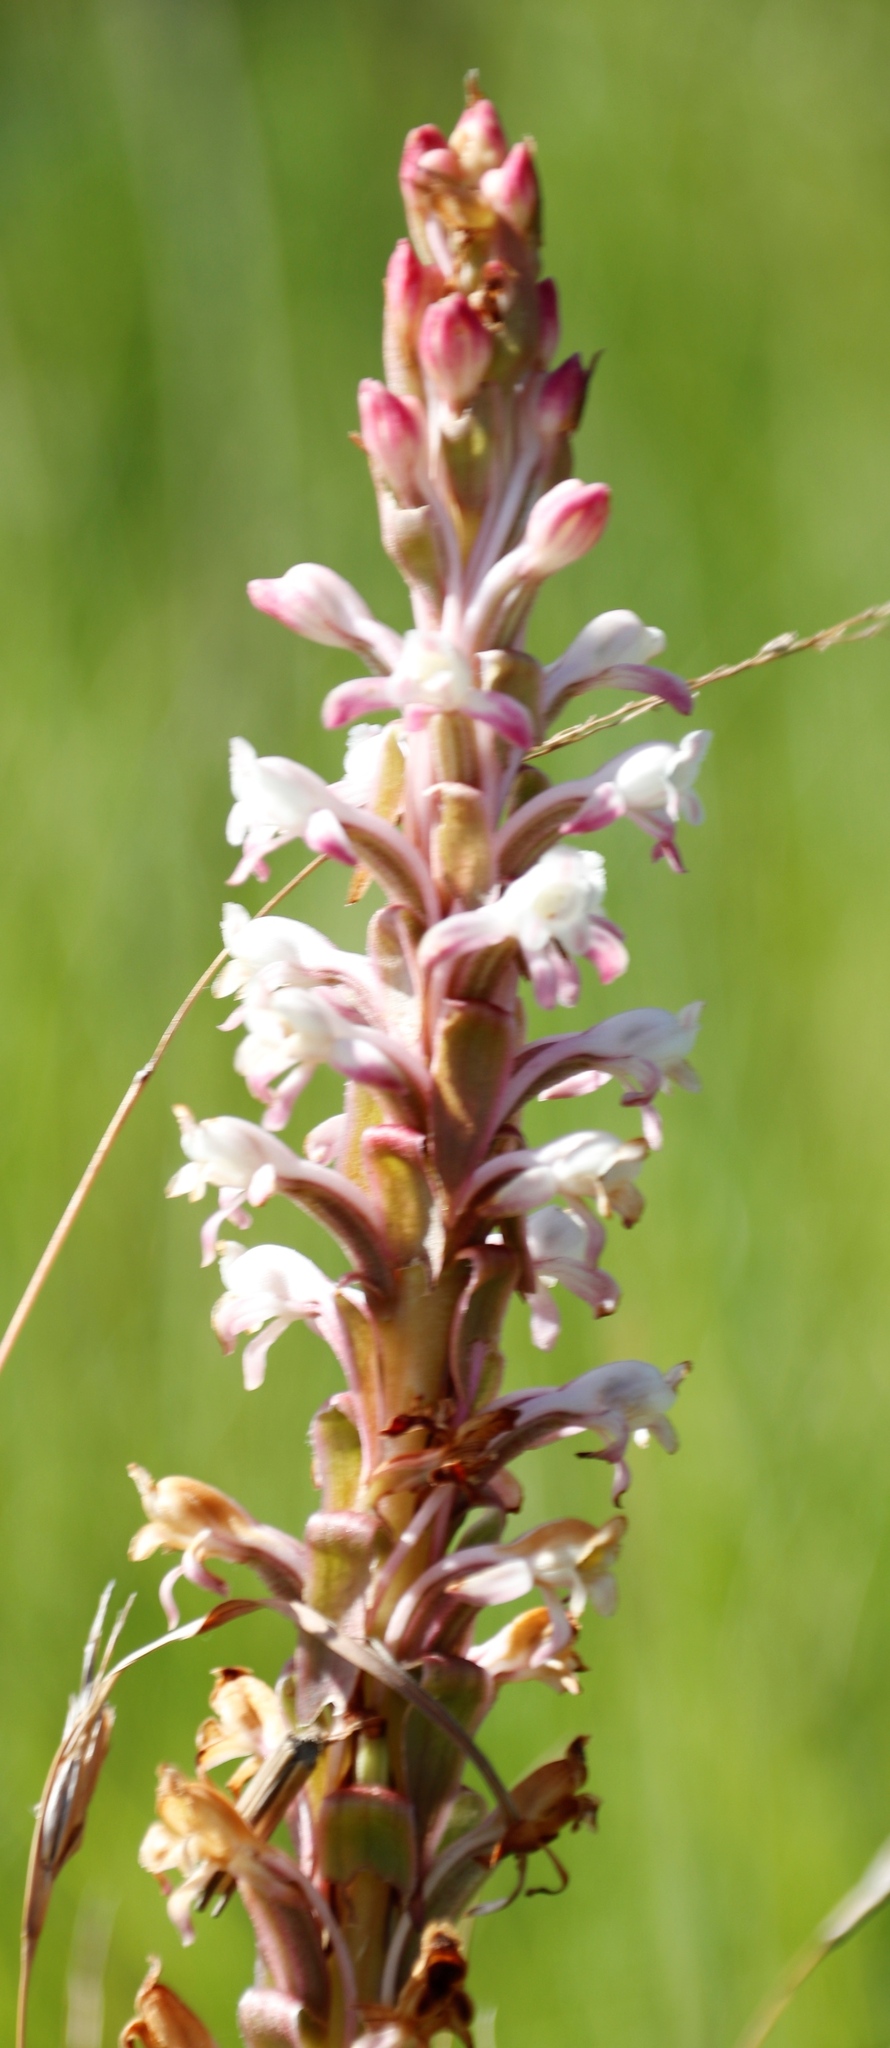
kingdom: Plantae
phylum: Tracheophyta
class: Liliopsida
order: Asparagales
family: Orchidaceae
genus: Satyrium
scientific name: Satyrium longicauda
